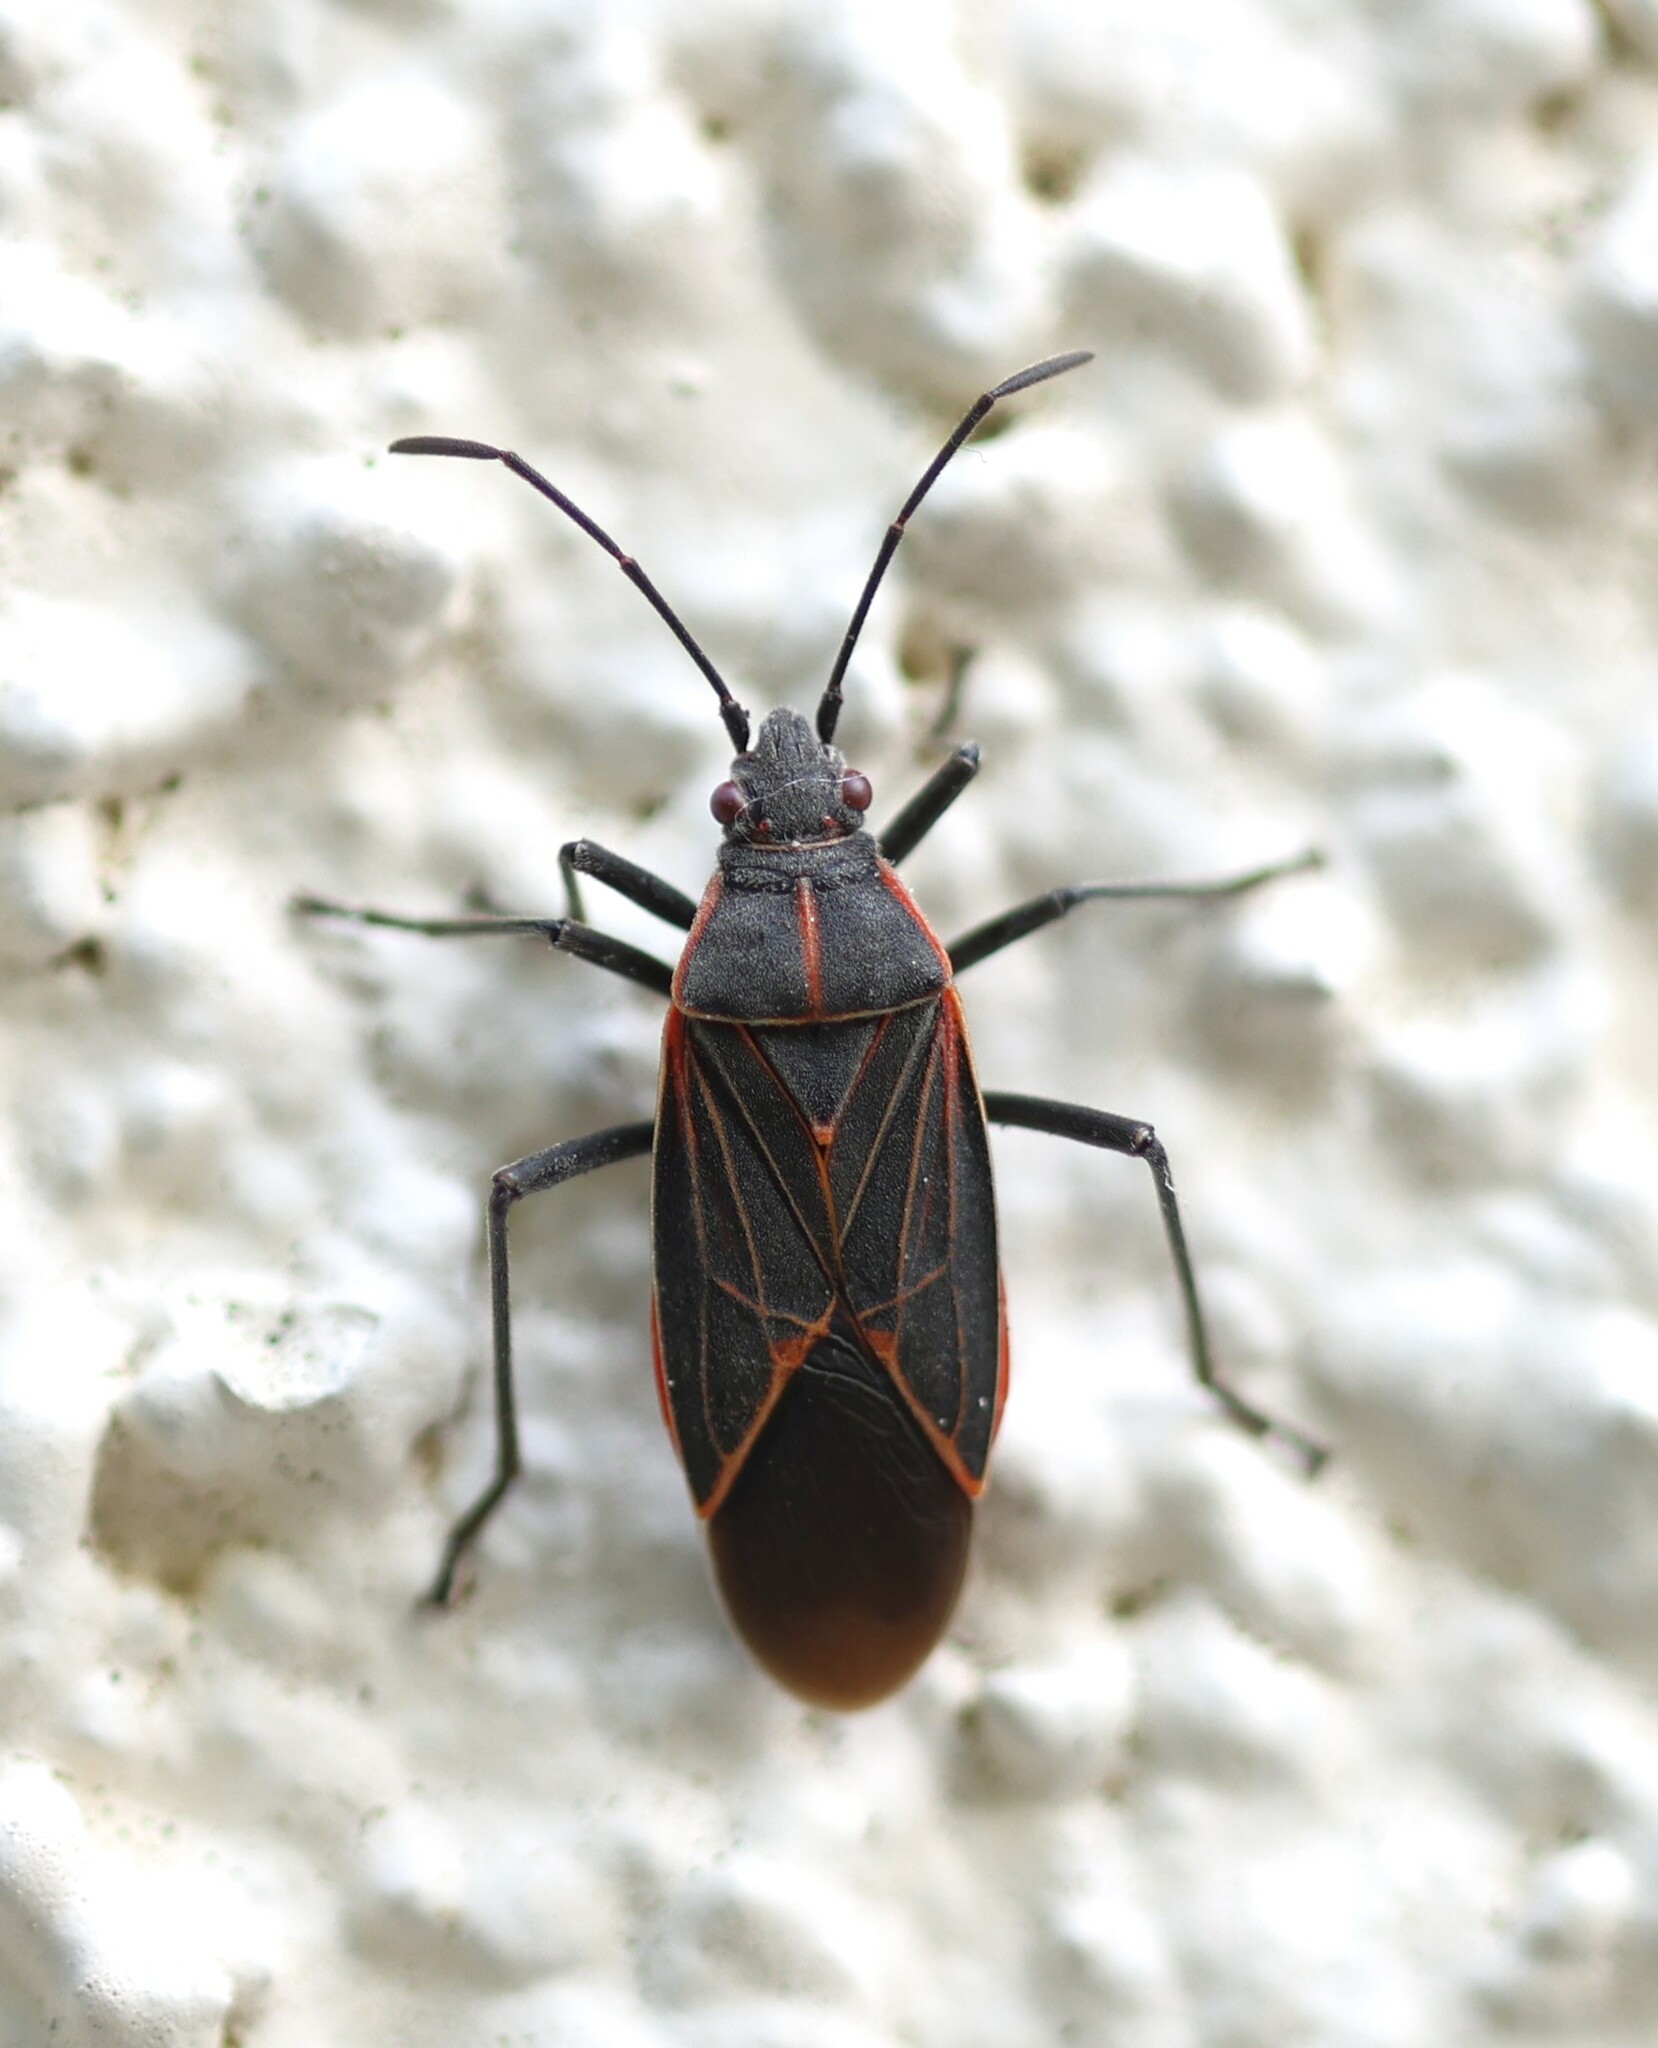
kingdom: Animalia
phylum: Arthropoda
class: Insecta
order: Hemiptera
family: Rhopalidae
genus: Boisea
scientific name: Boisea rubrolineata
